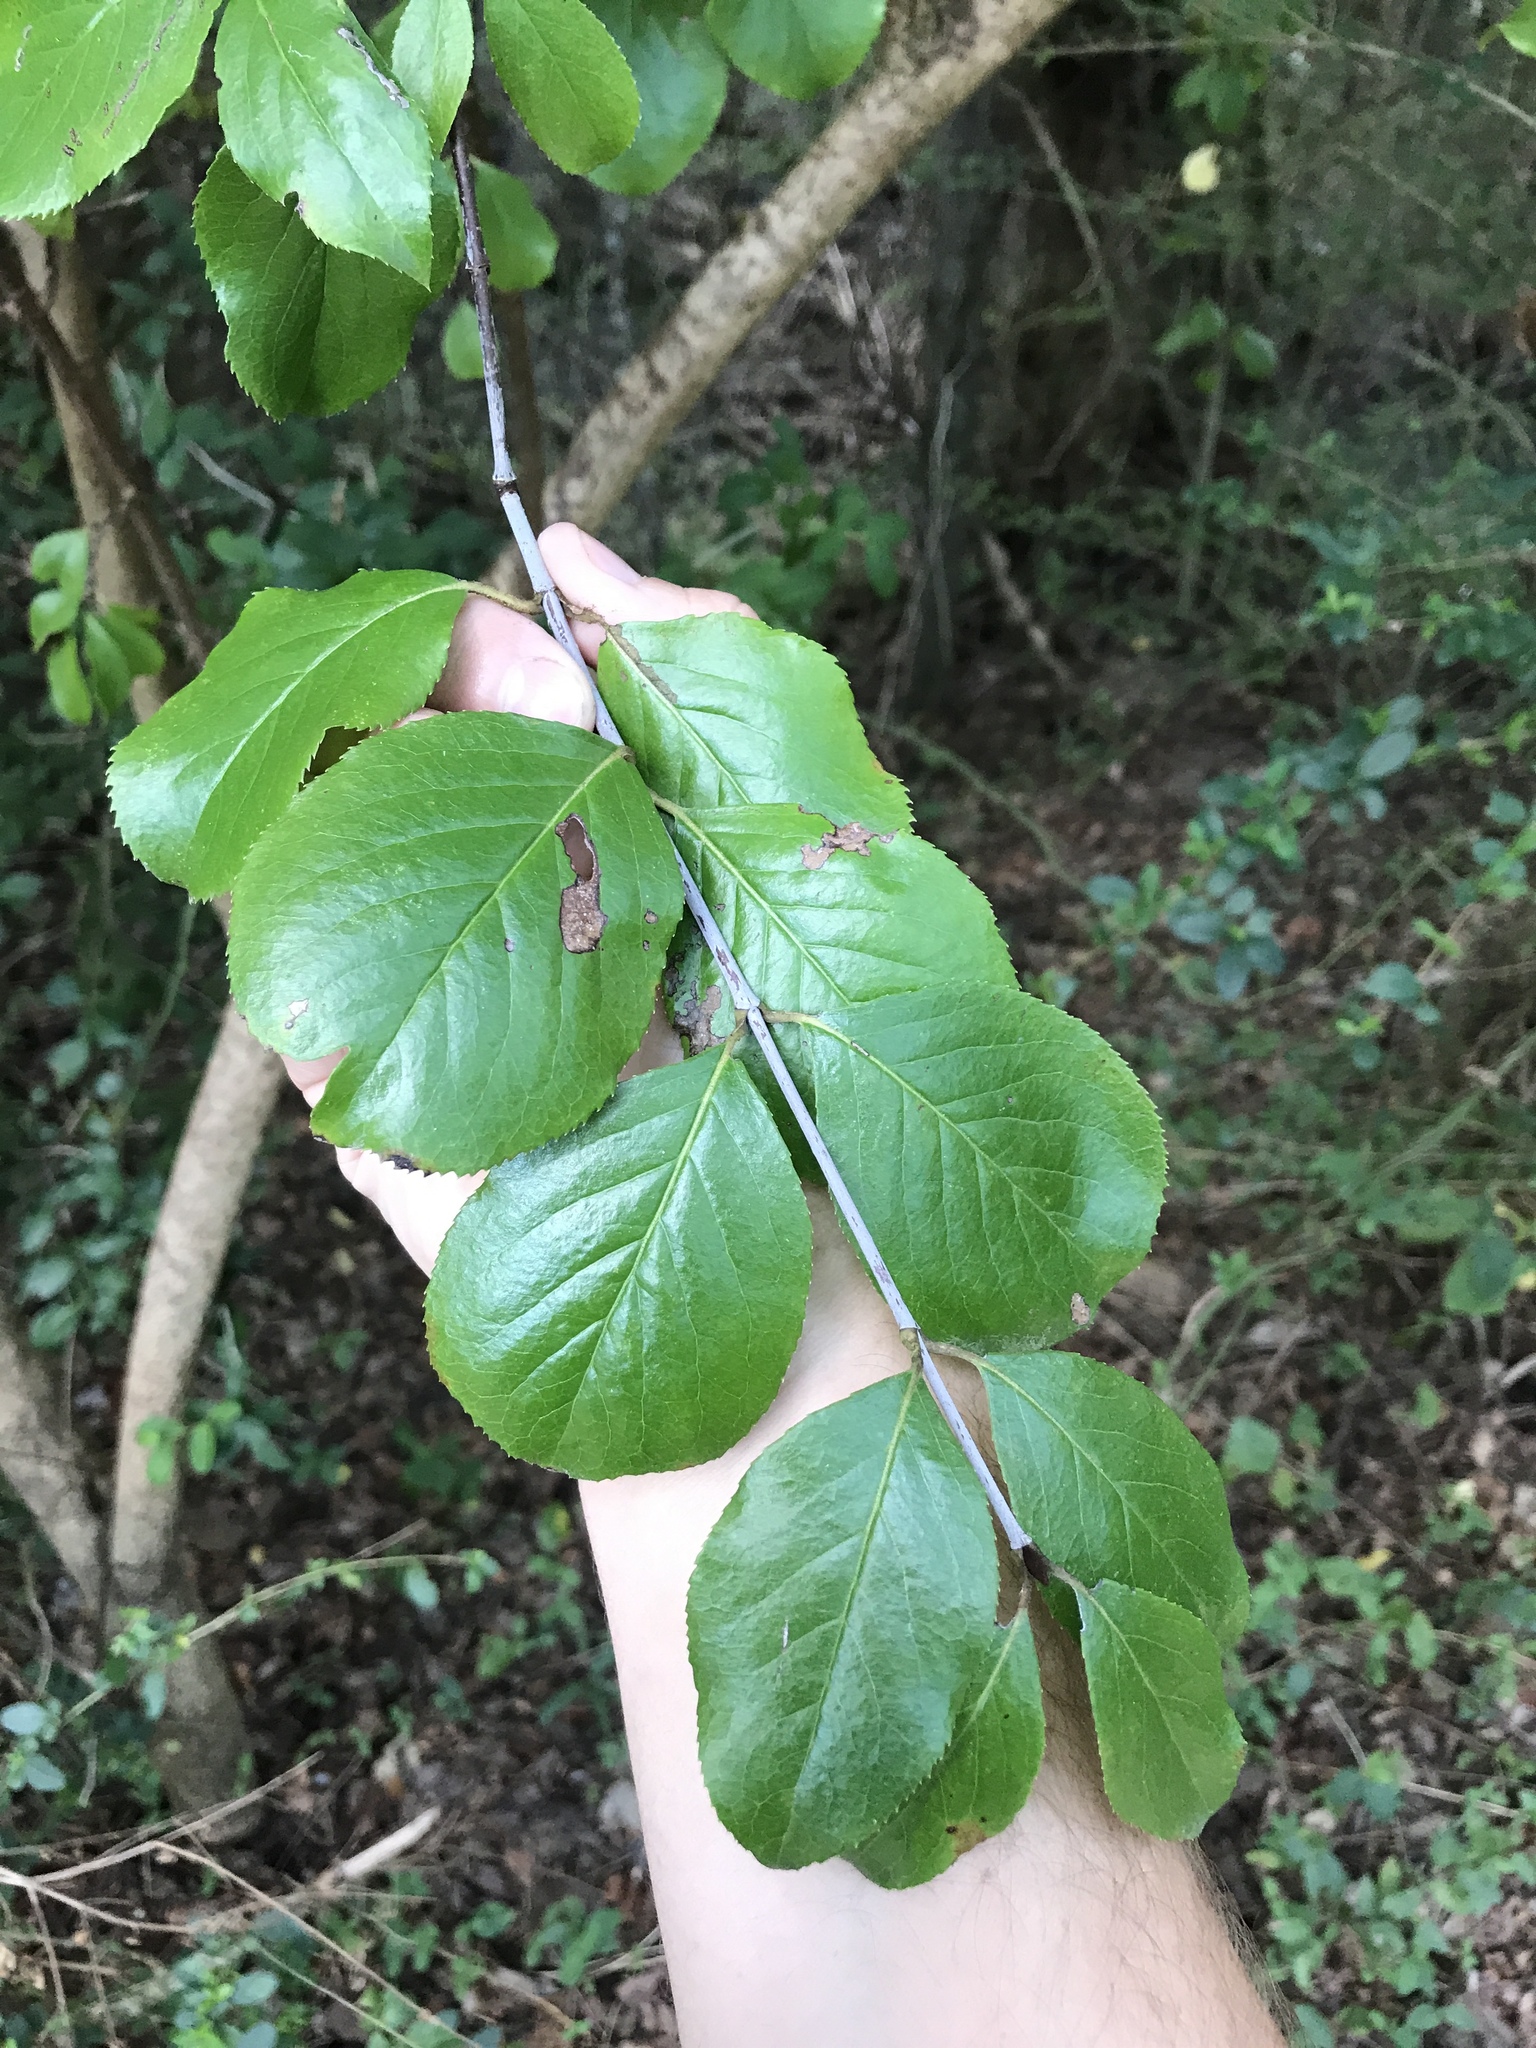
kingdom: Plantae
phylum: Tracheophyta
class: Magnoliopsida
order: Dipsacales
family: Viburnaceae
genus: Viburnum
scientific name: Viburnum rufidulum
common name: Blue haw
